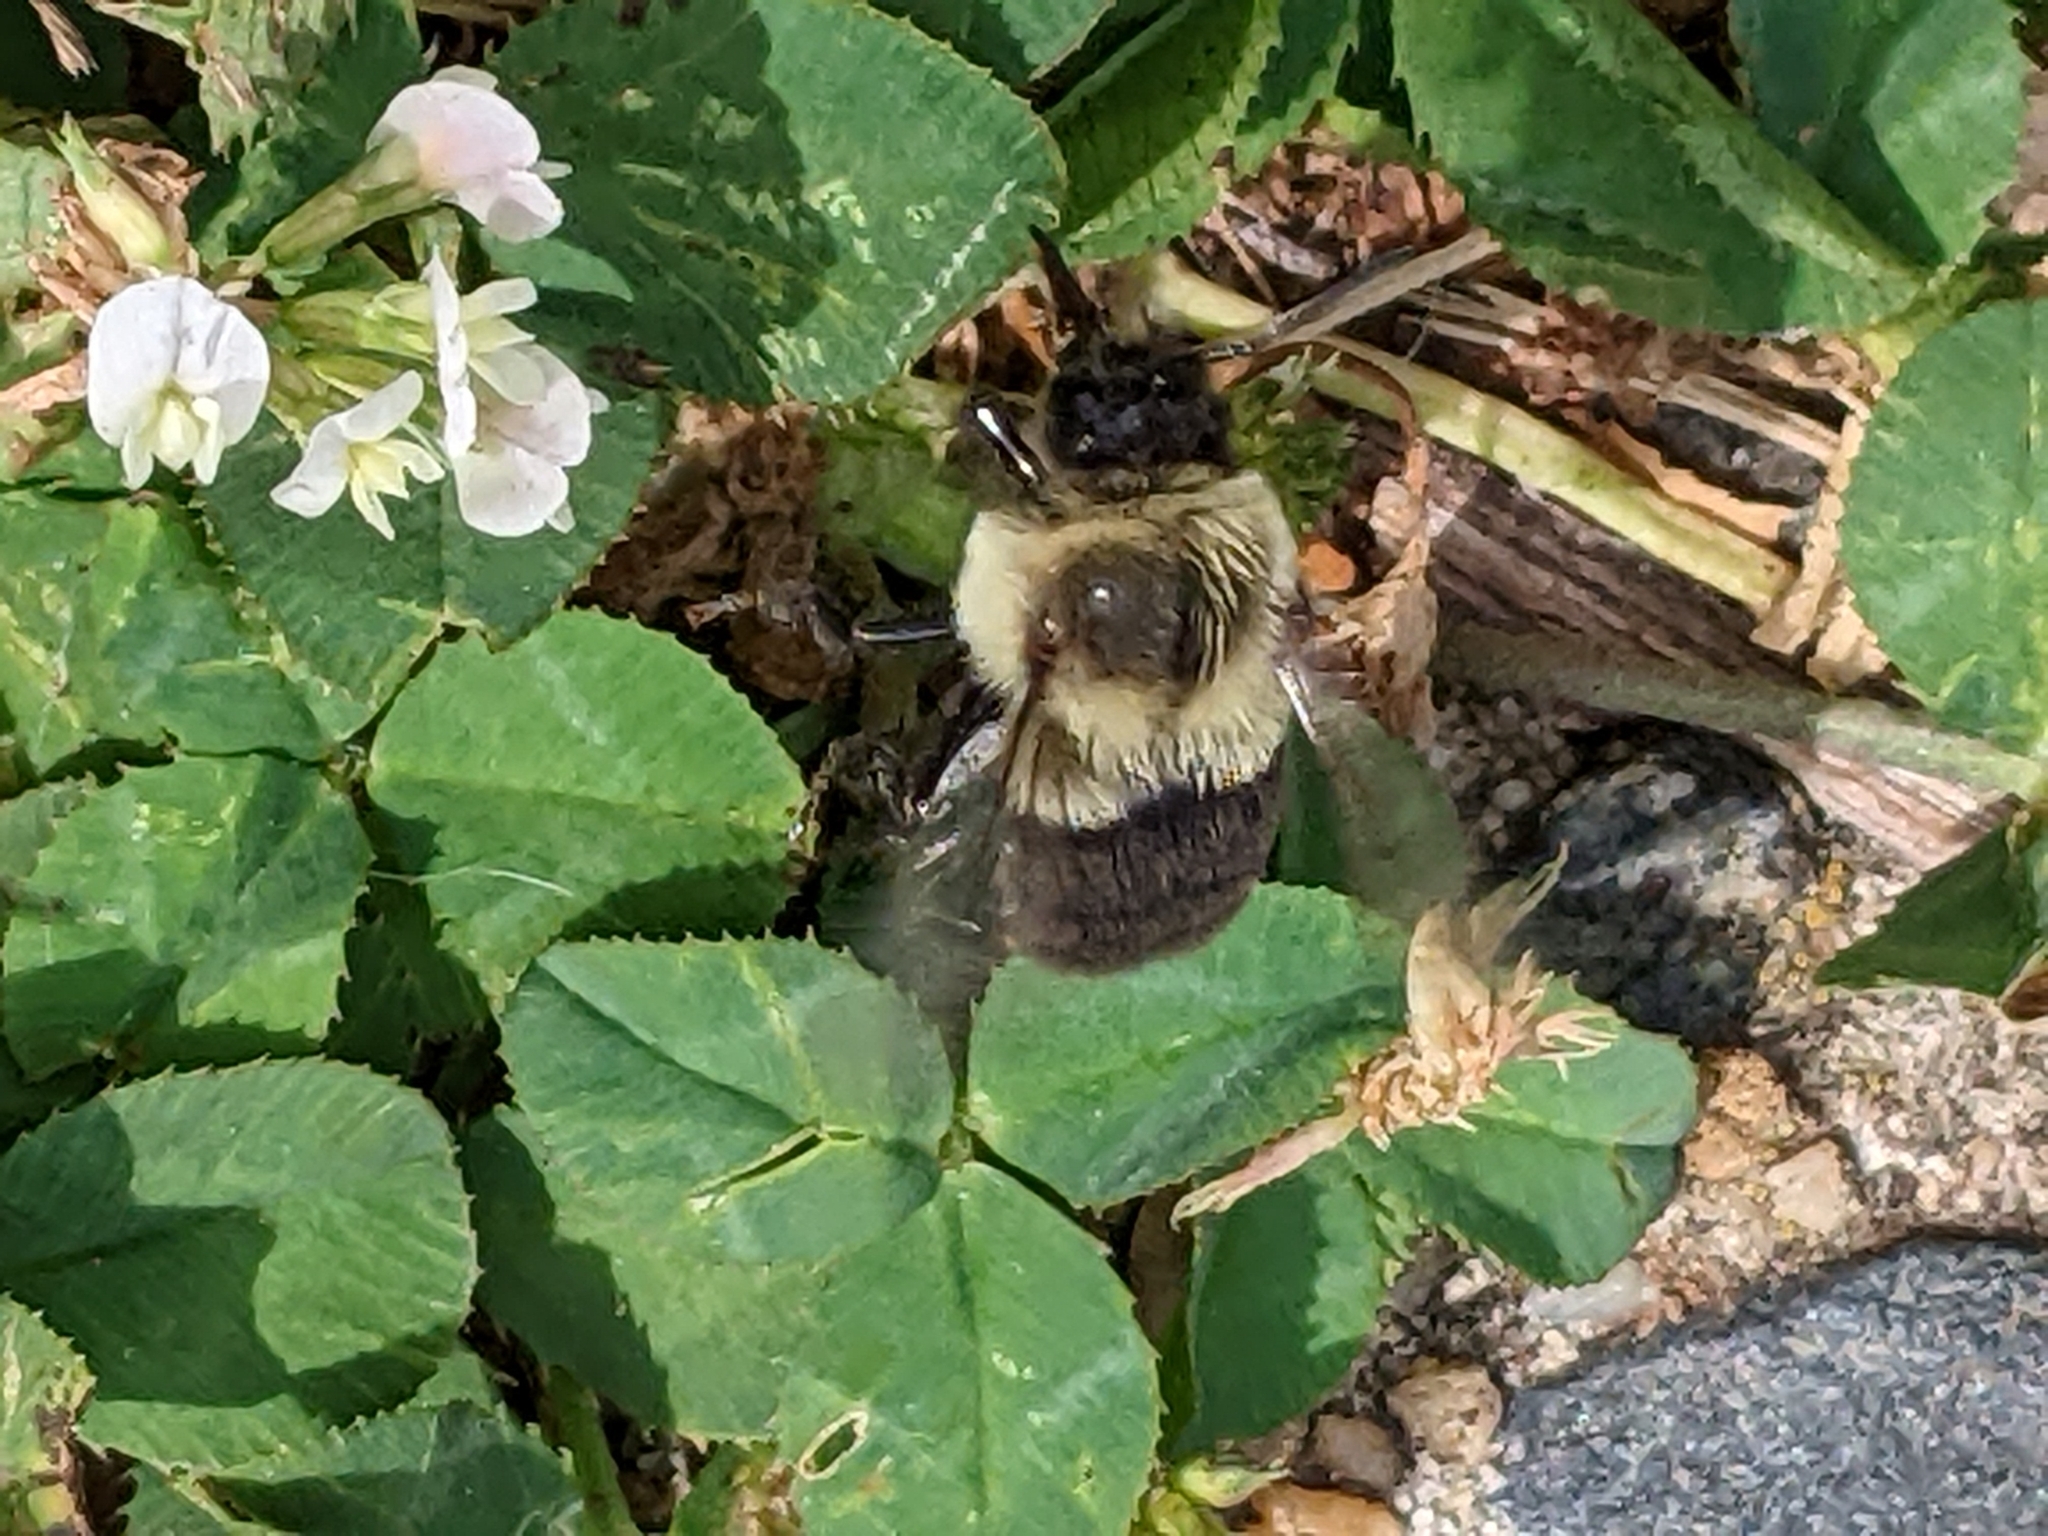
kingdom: Animalia
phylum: Arthropoda
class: Insecta
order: Hymenoptera
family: Apidae
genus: Bombus
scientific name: Bombus impatiens
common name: Common eastern bumble bee
